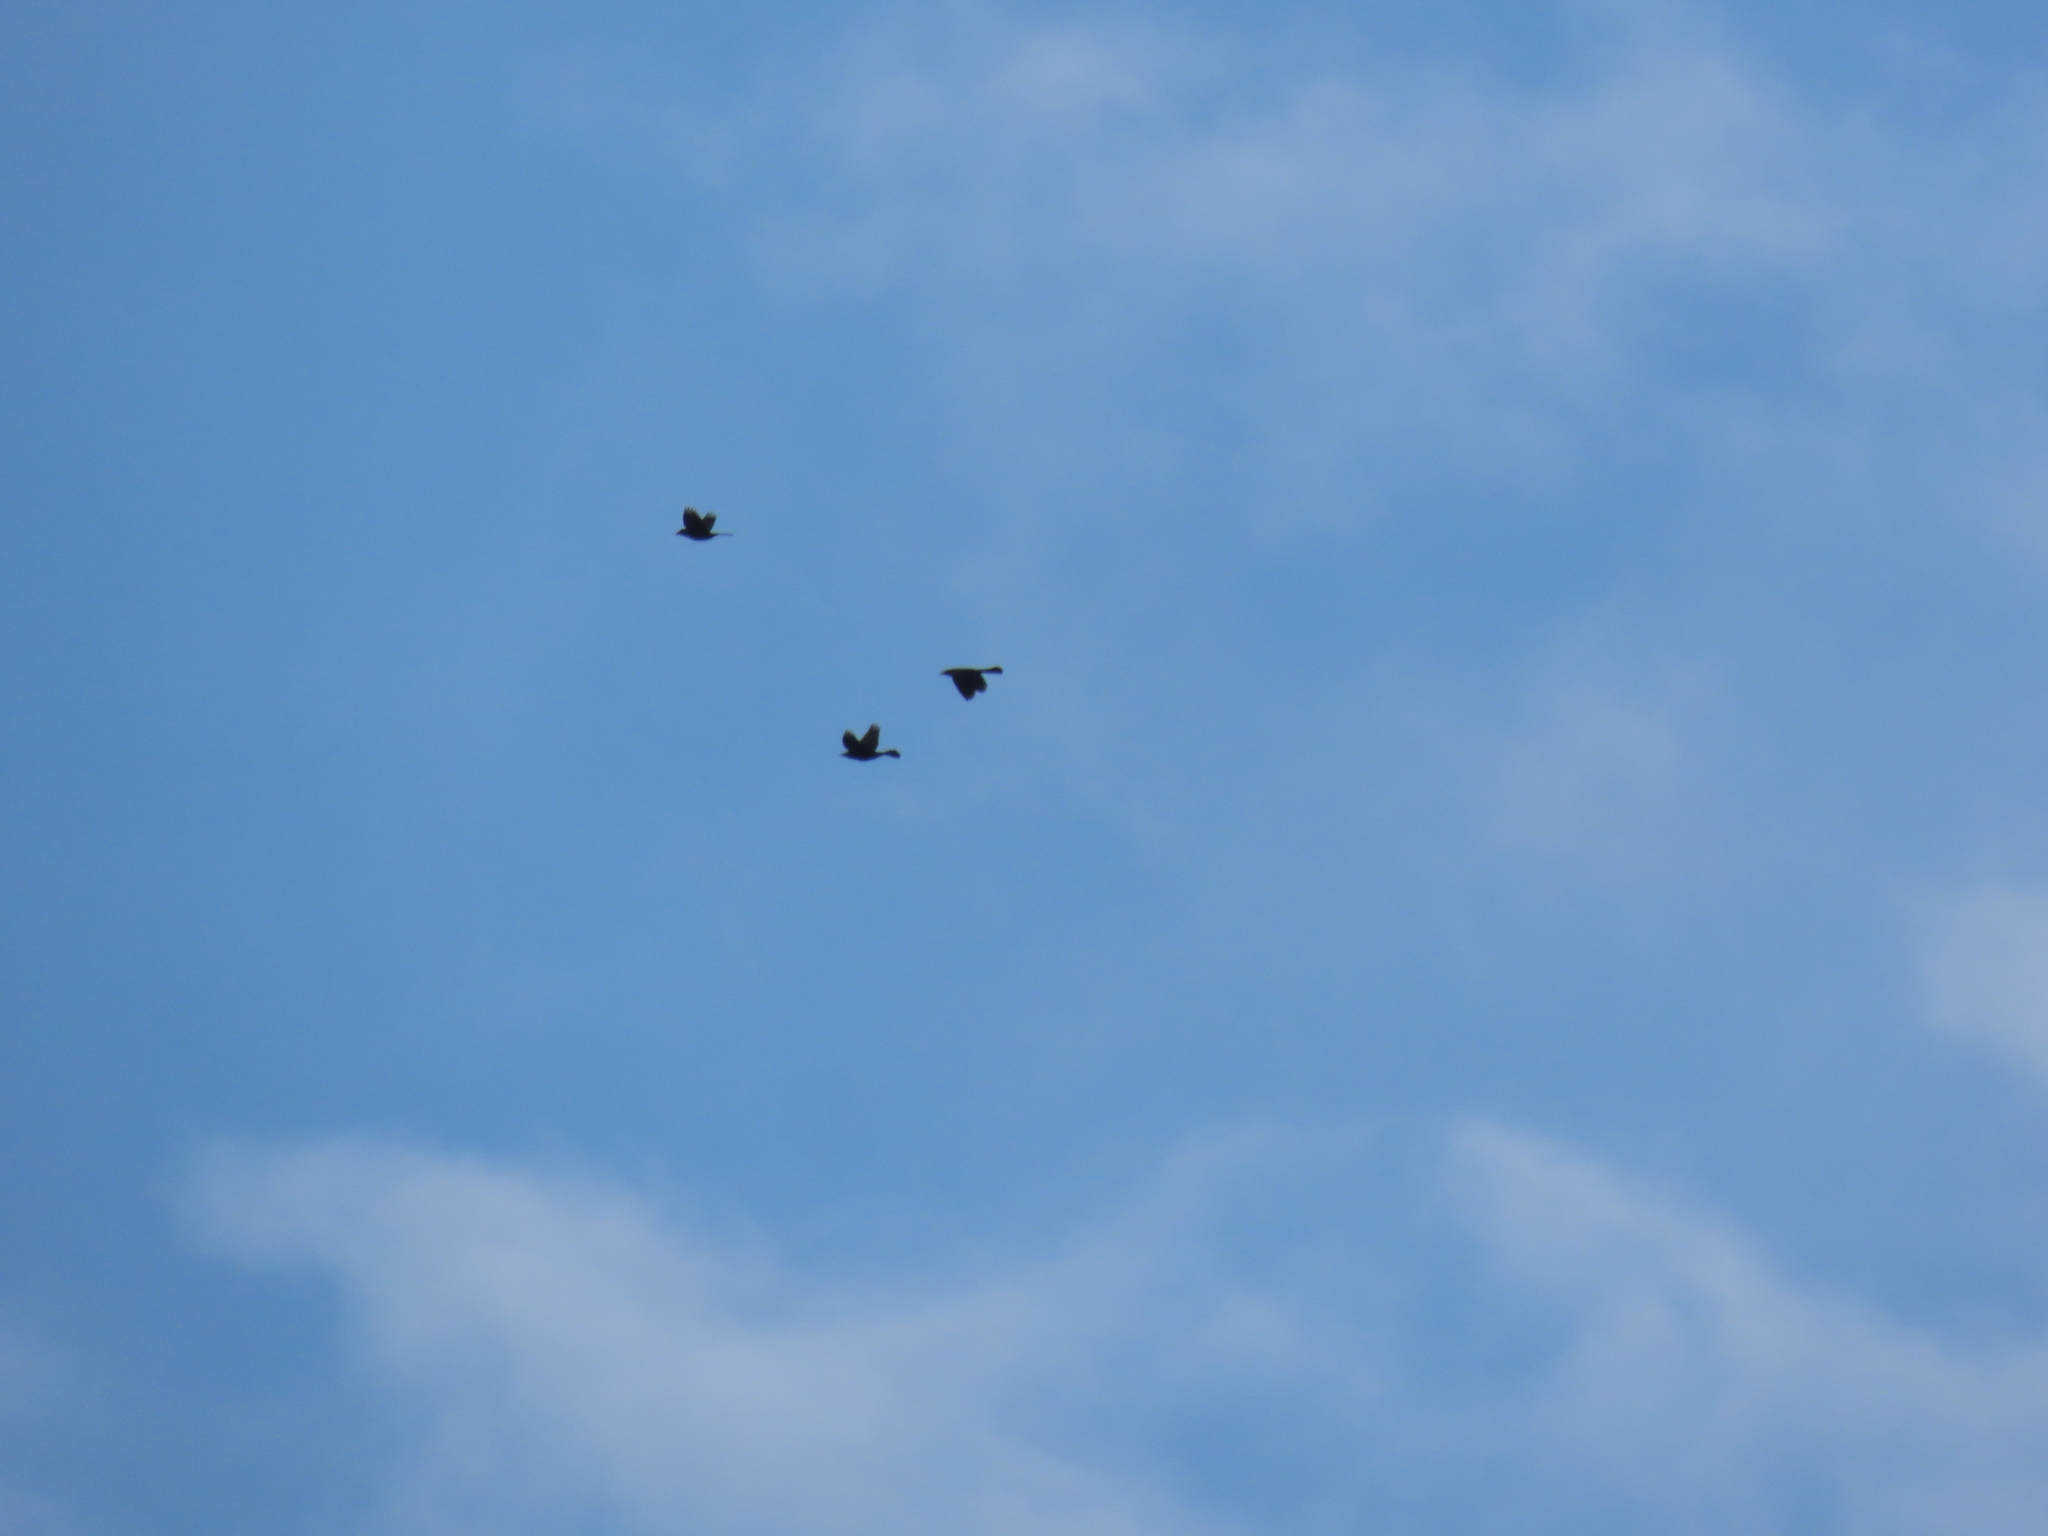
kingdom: Animalia
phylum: Chordata
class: Aves
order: Passeriformes
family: Icteridae
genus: Quiscalus
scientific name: Quiscalus quiscula
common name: Common grackle
